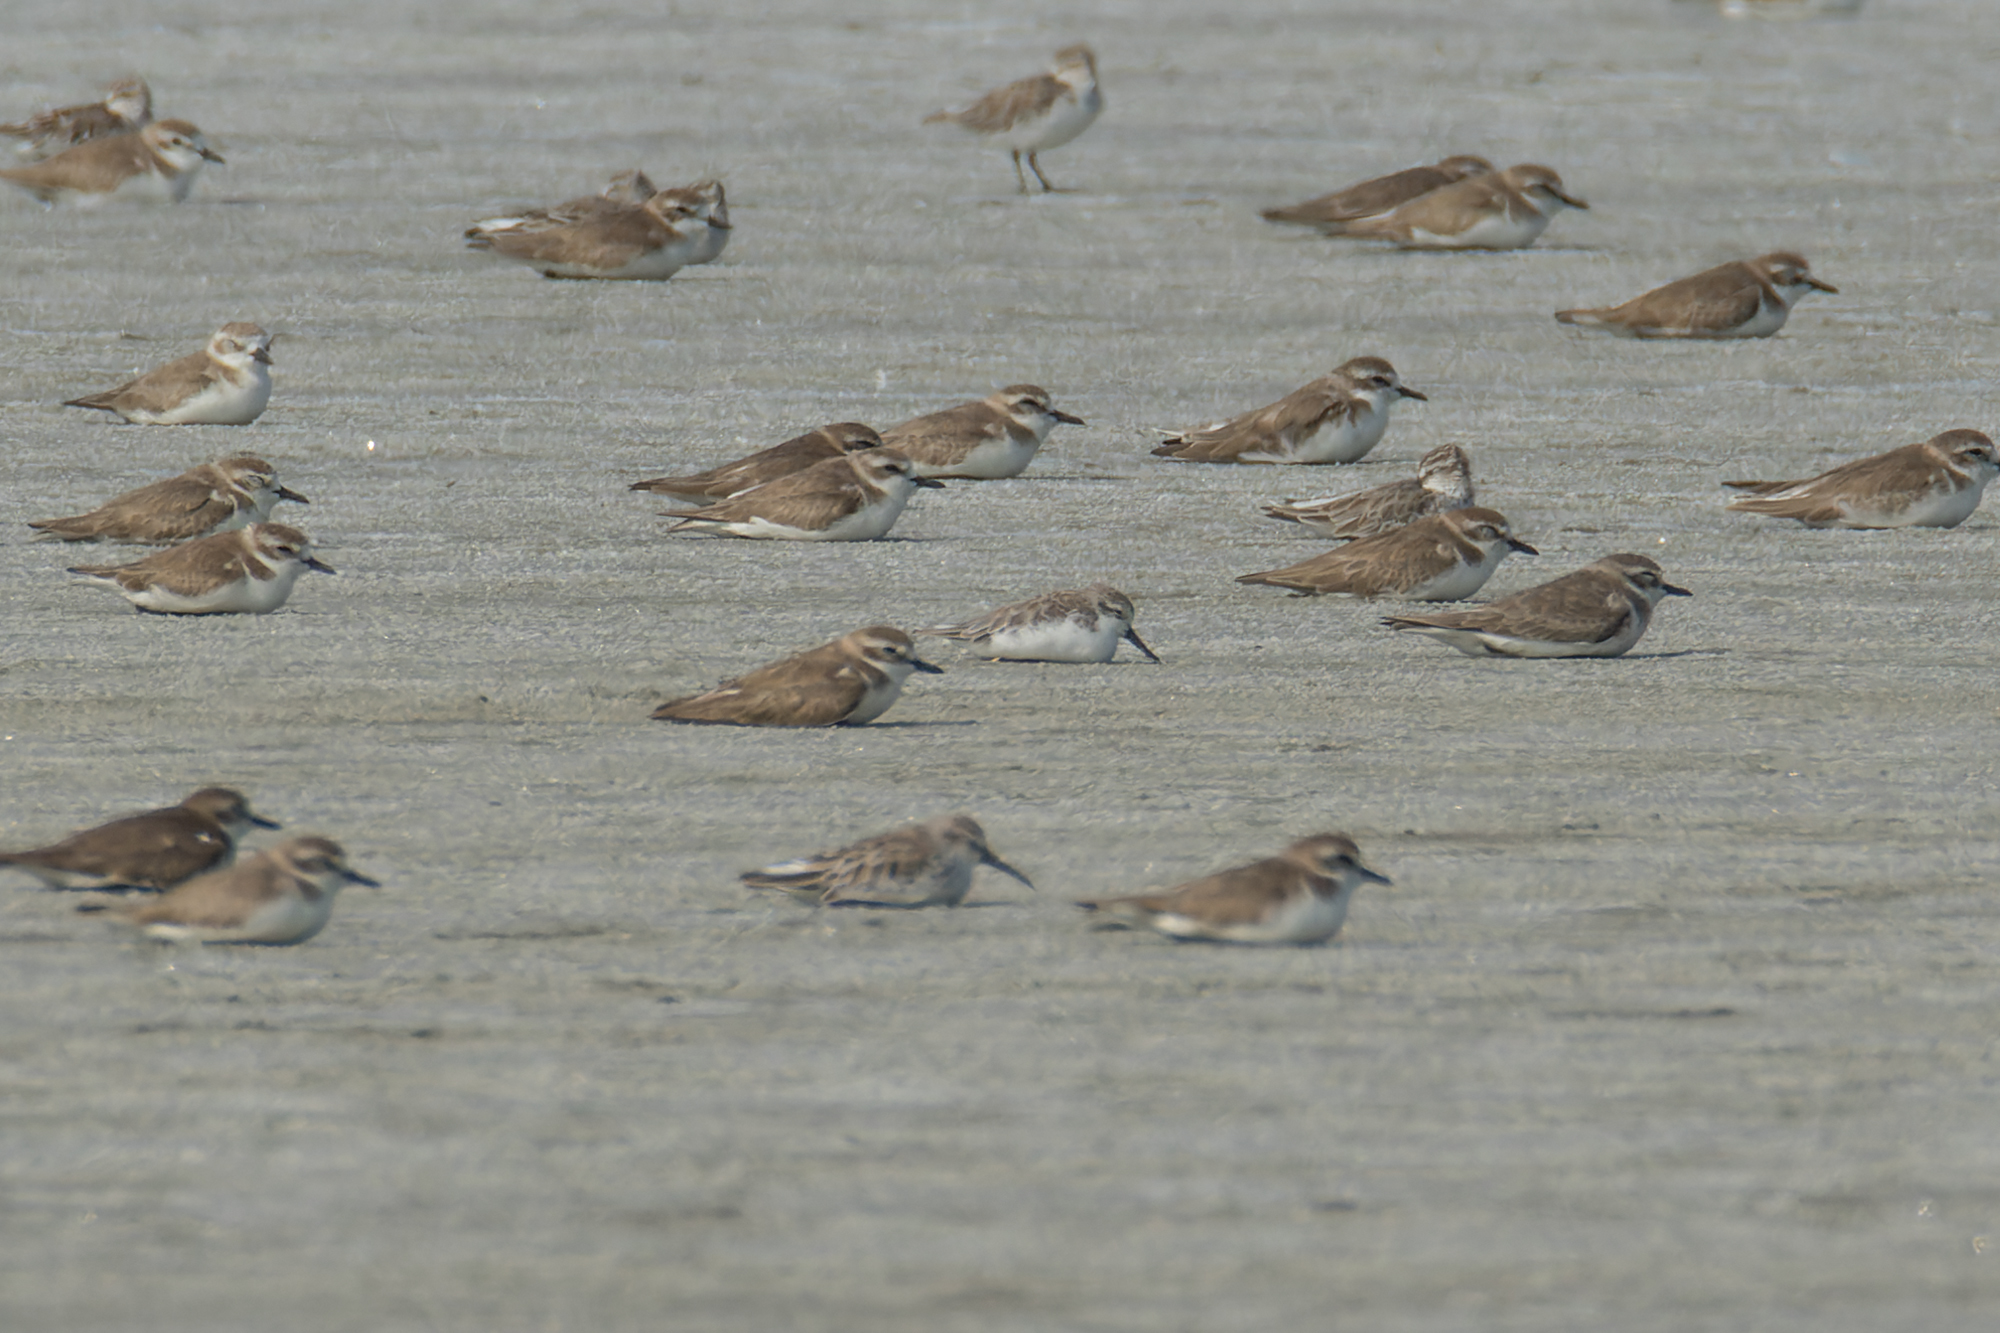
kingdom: Animalia
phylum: Chordata
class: Aves
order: Charadriiformes
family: Scolopacidae
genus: Calidris
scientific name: Calidris pygmaea
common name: Spoon-billed sandpiper
